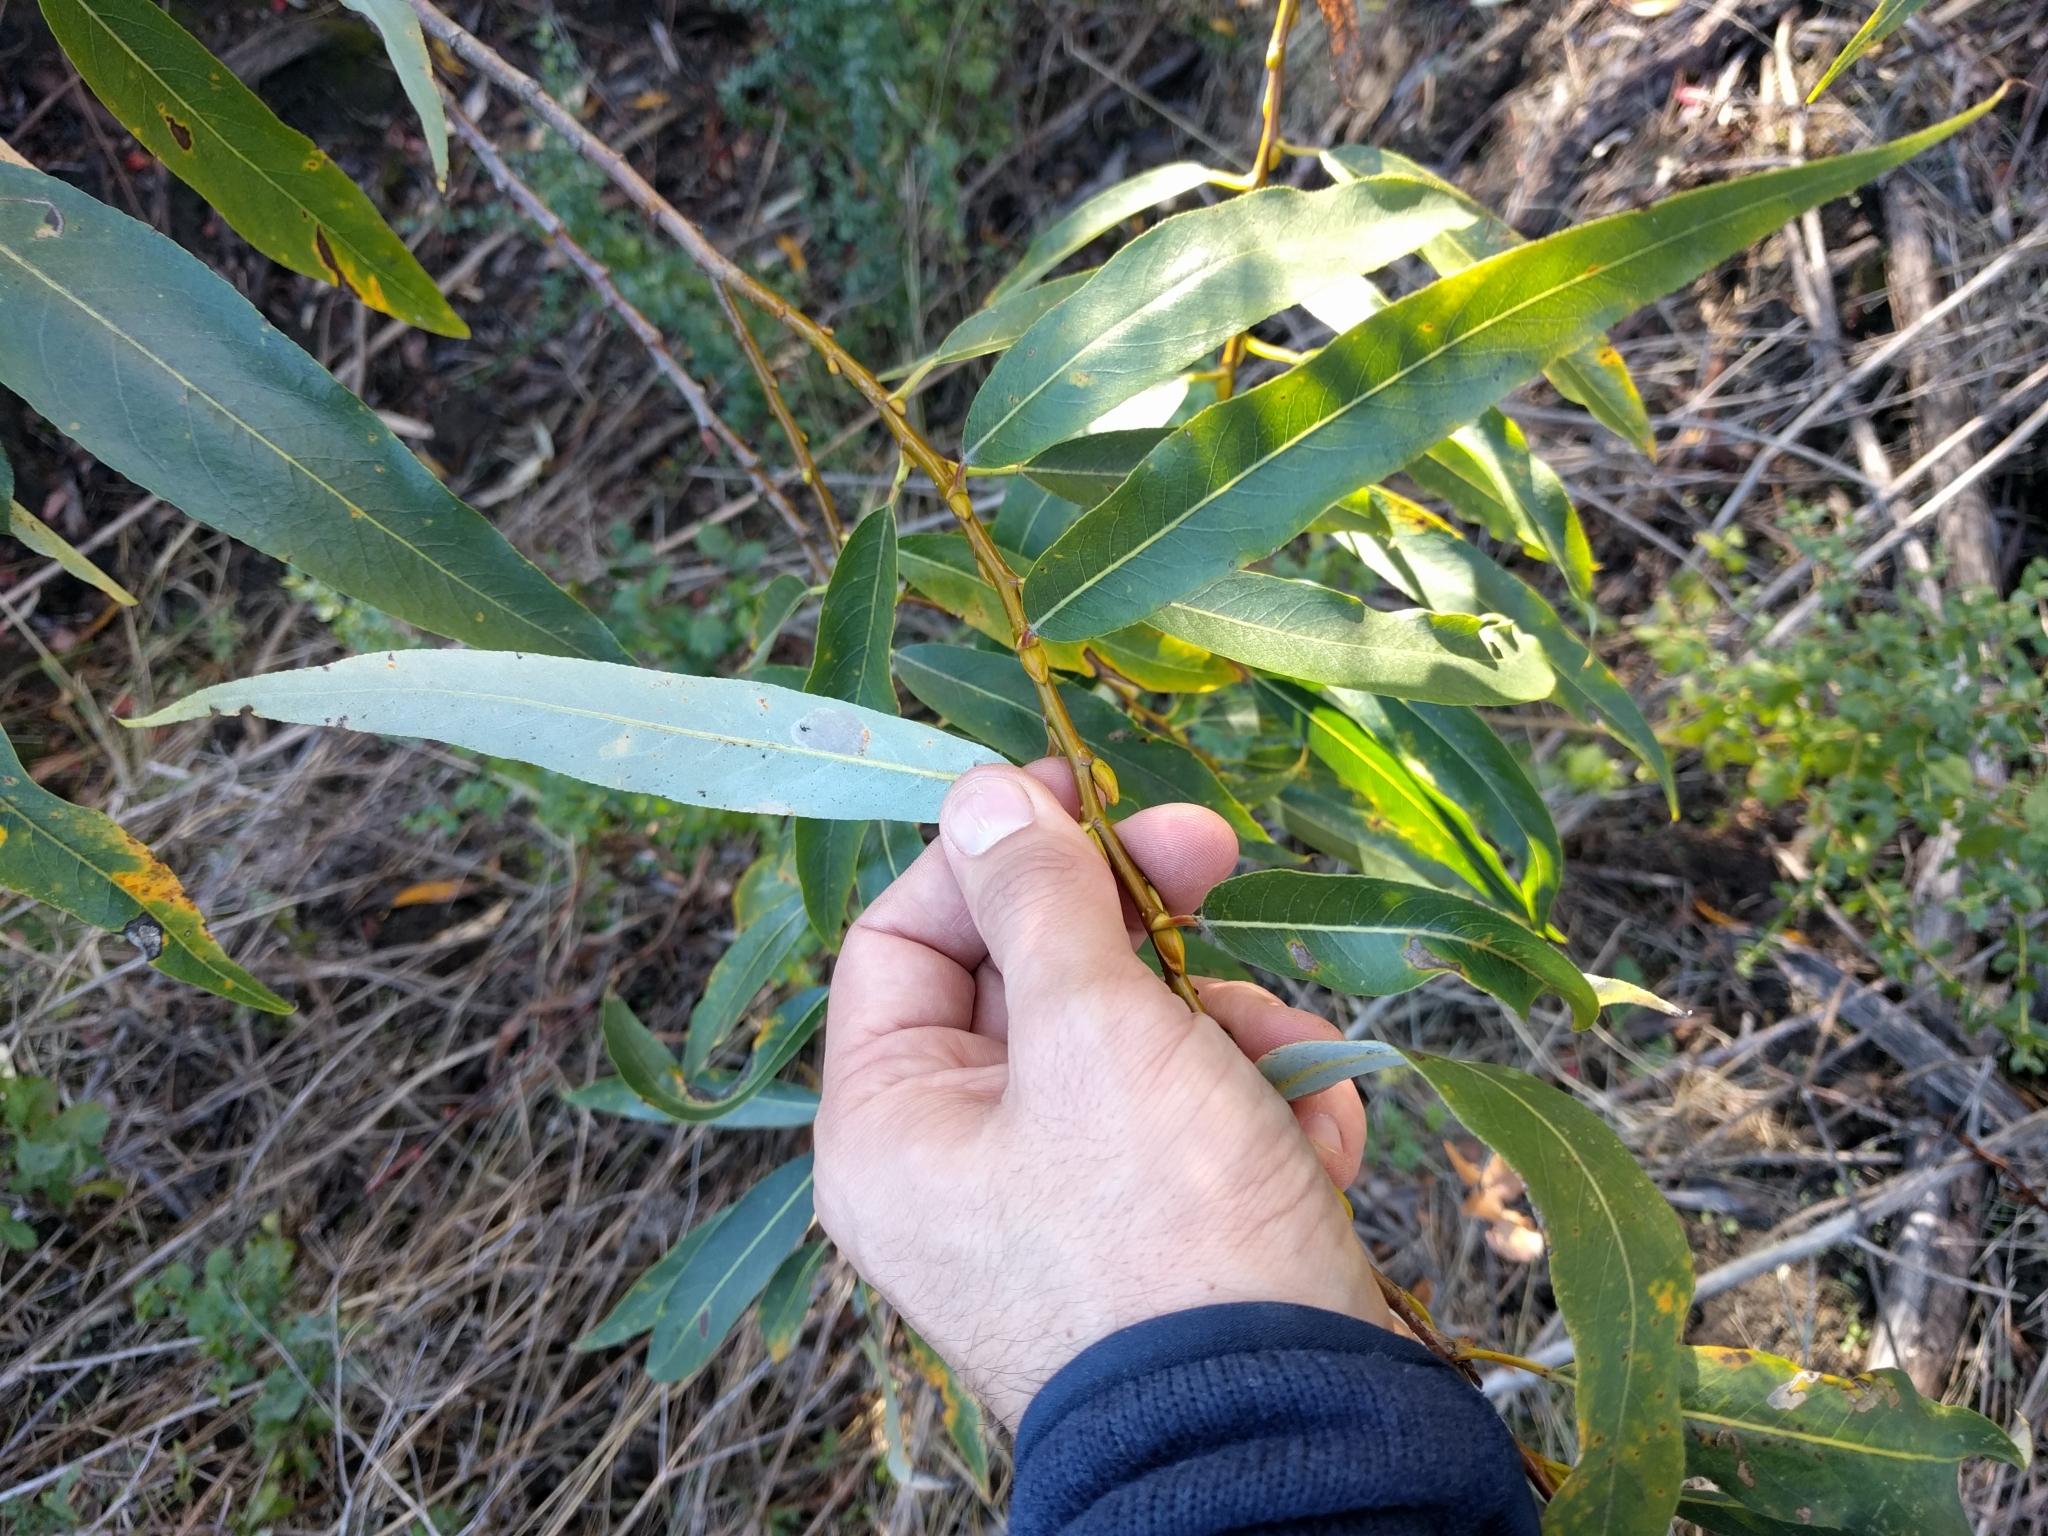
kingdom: Plantae
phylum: Tracheophyta
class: Magnoliopsida
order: Malpighiales
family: Salicaceae
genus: Salix
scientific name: Salix laevigata
